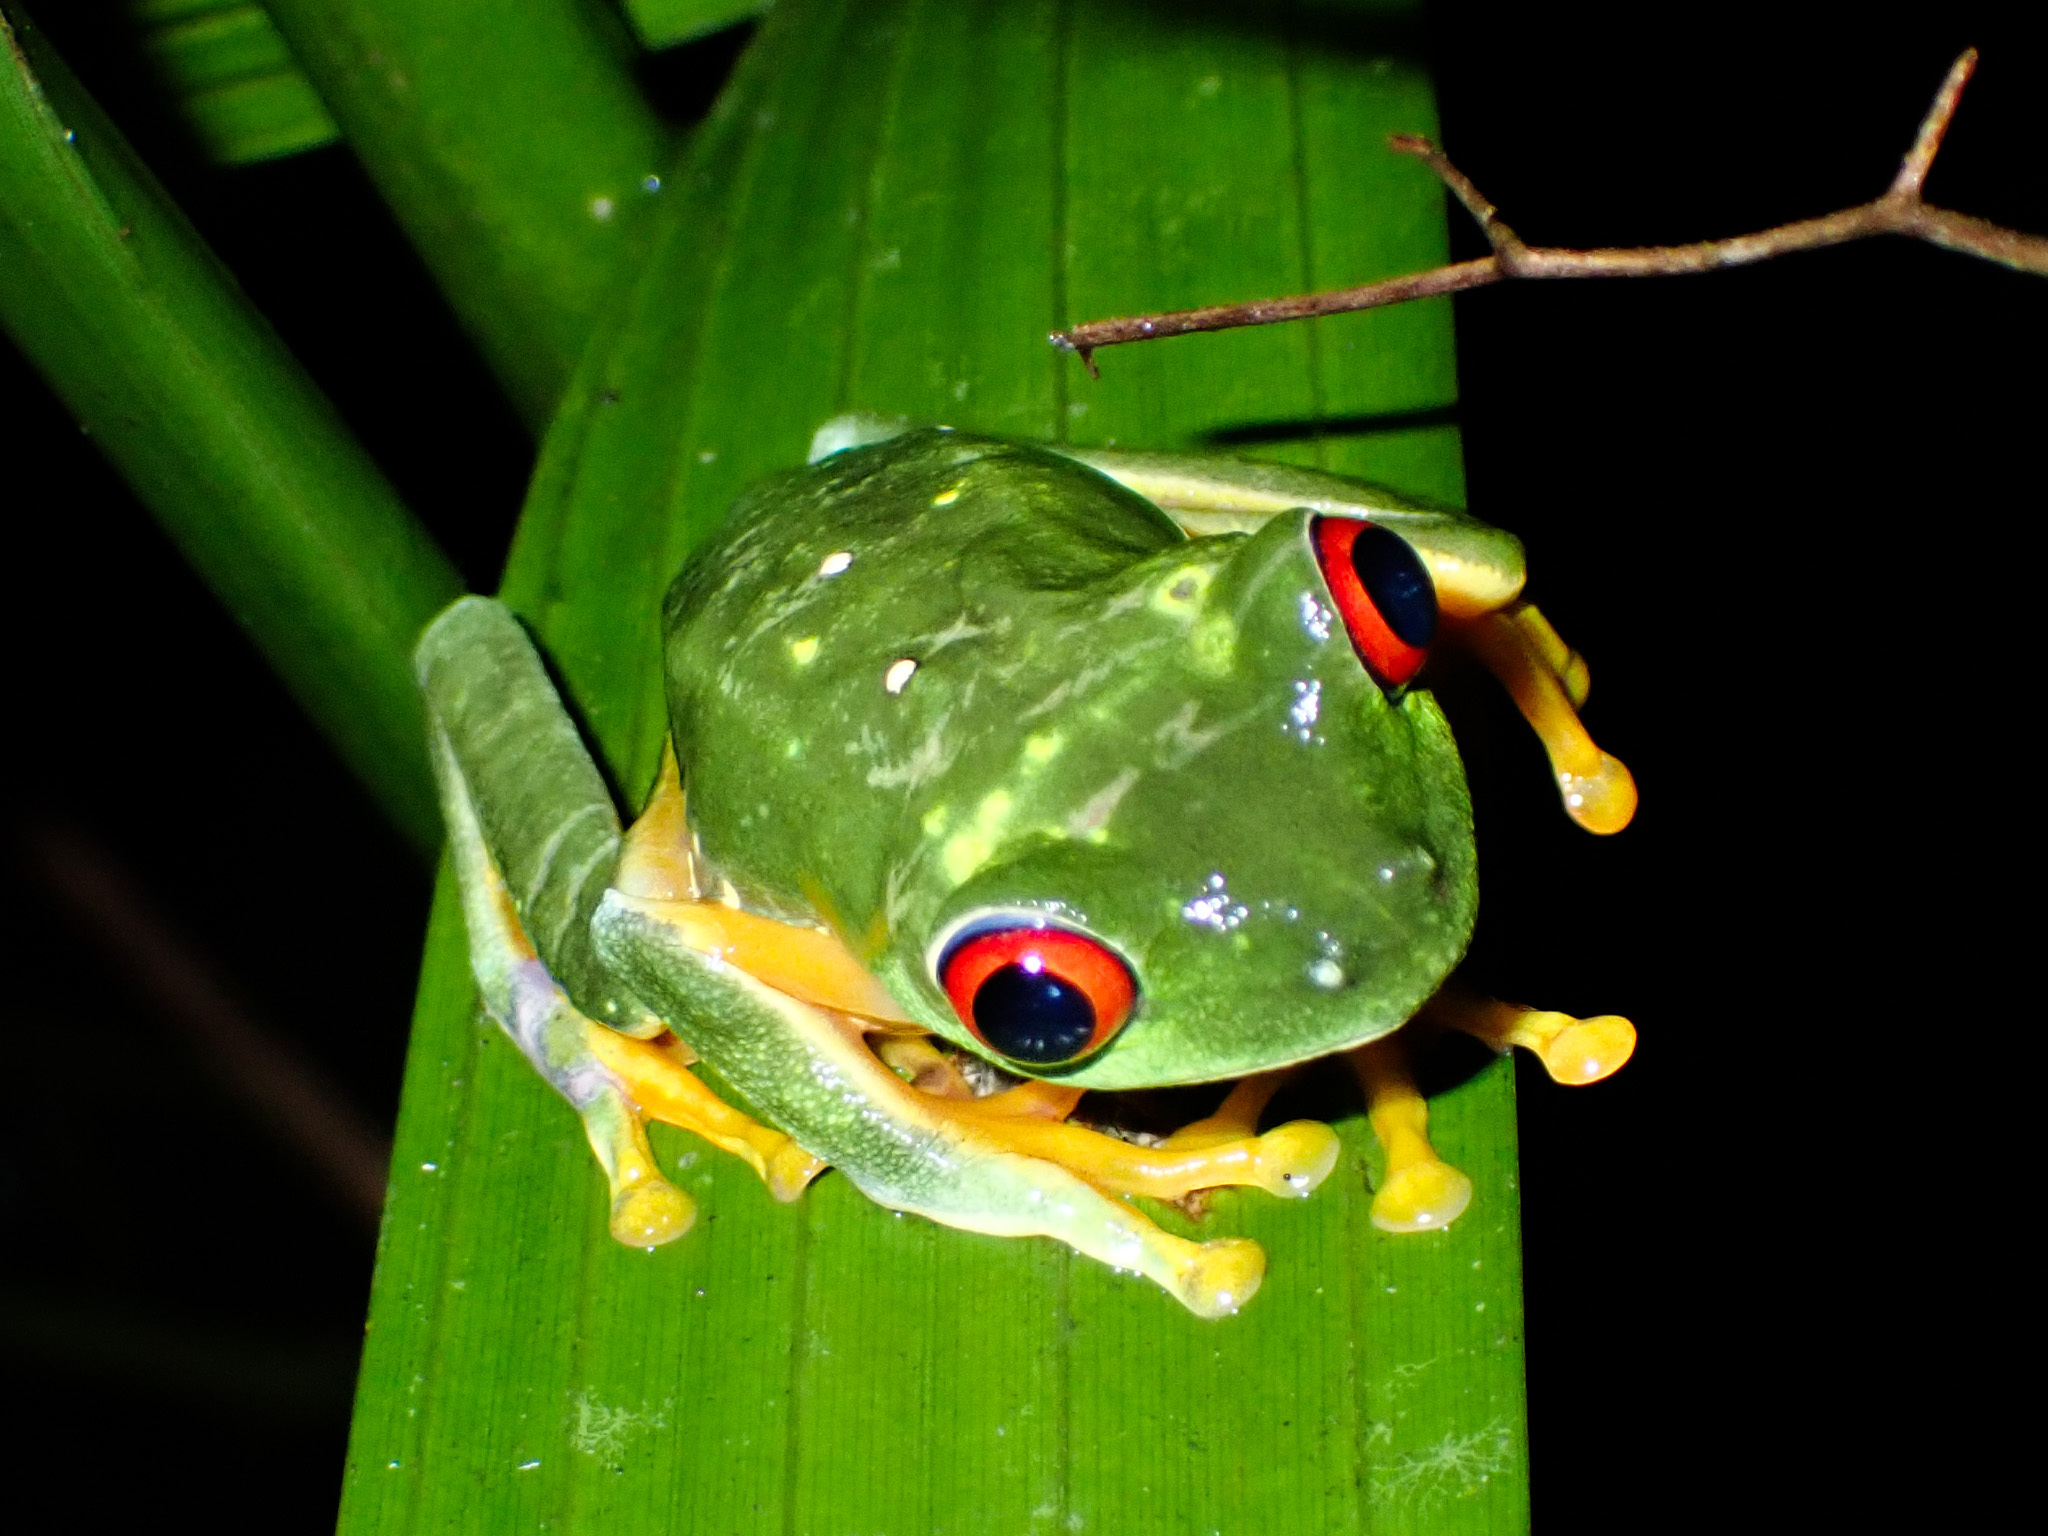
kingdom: Animalia
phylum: Chordata
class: Amphibia
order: Anura
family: Phyllomedusidae
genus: Agalychnis
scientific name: Agalychnis
